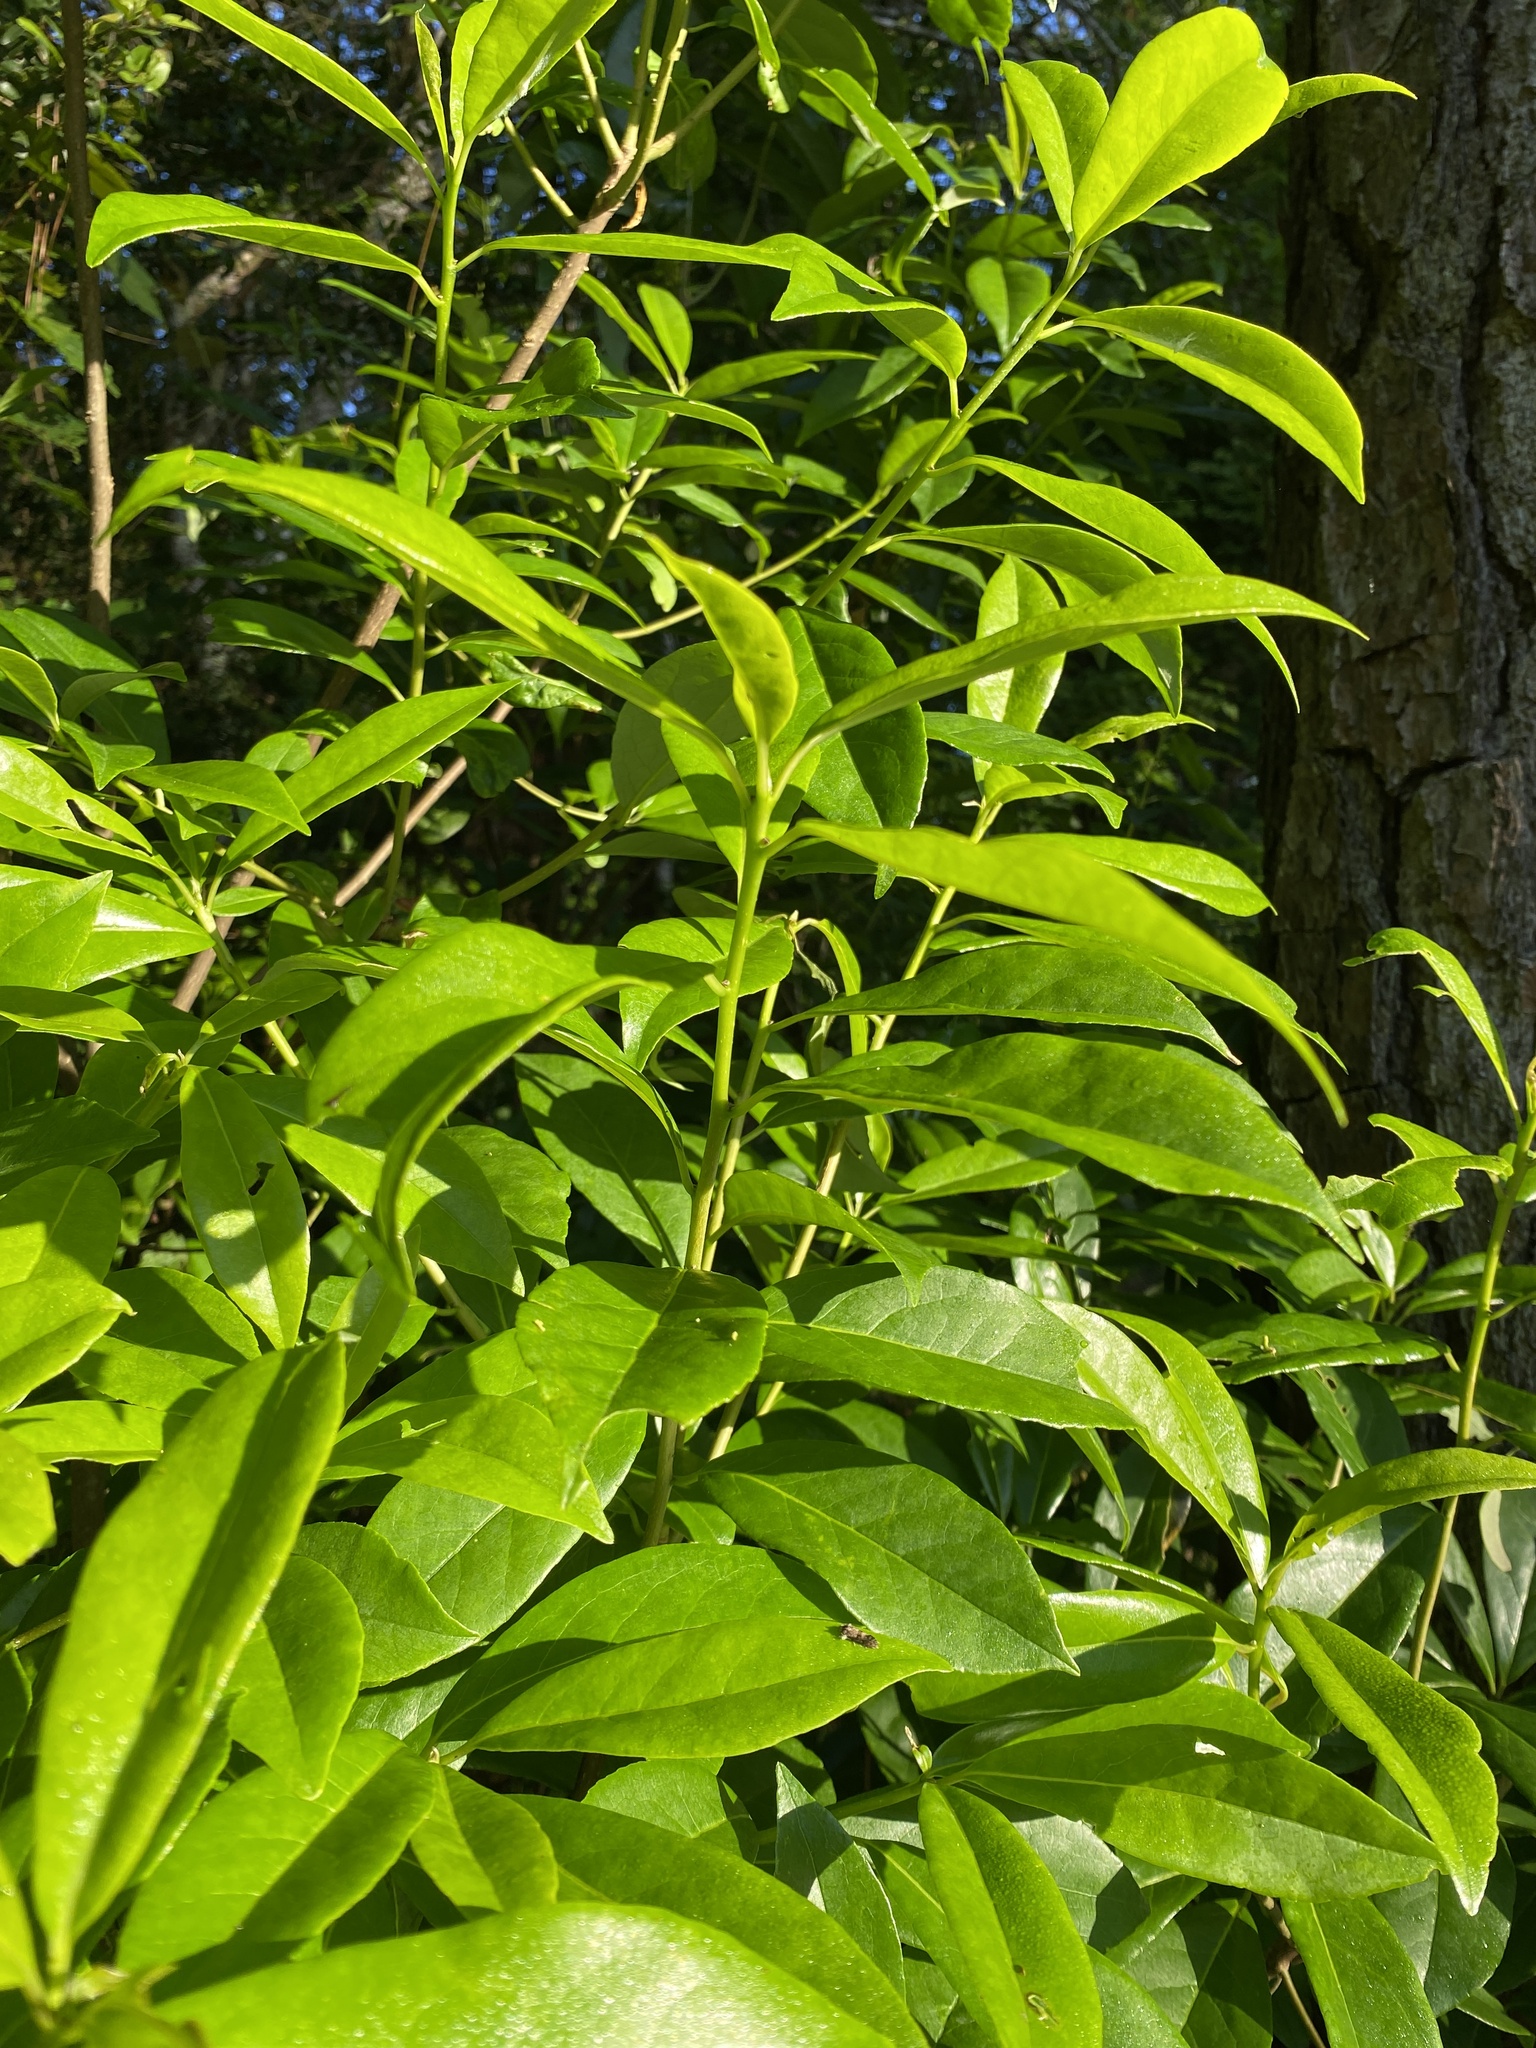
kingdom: Plantae
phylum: Tracheophyta
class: Magnoliopsida
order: Ericales
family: Symplocaceae
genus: Symplocos
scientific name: Symplocos tinctoria
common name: Horse-sugar
